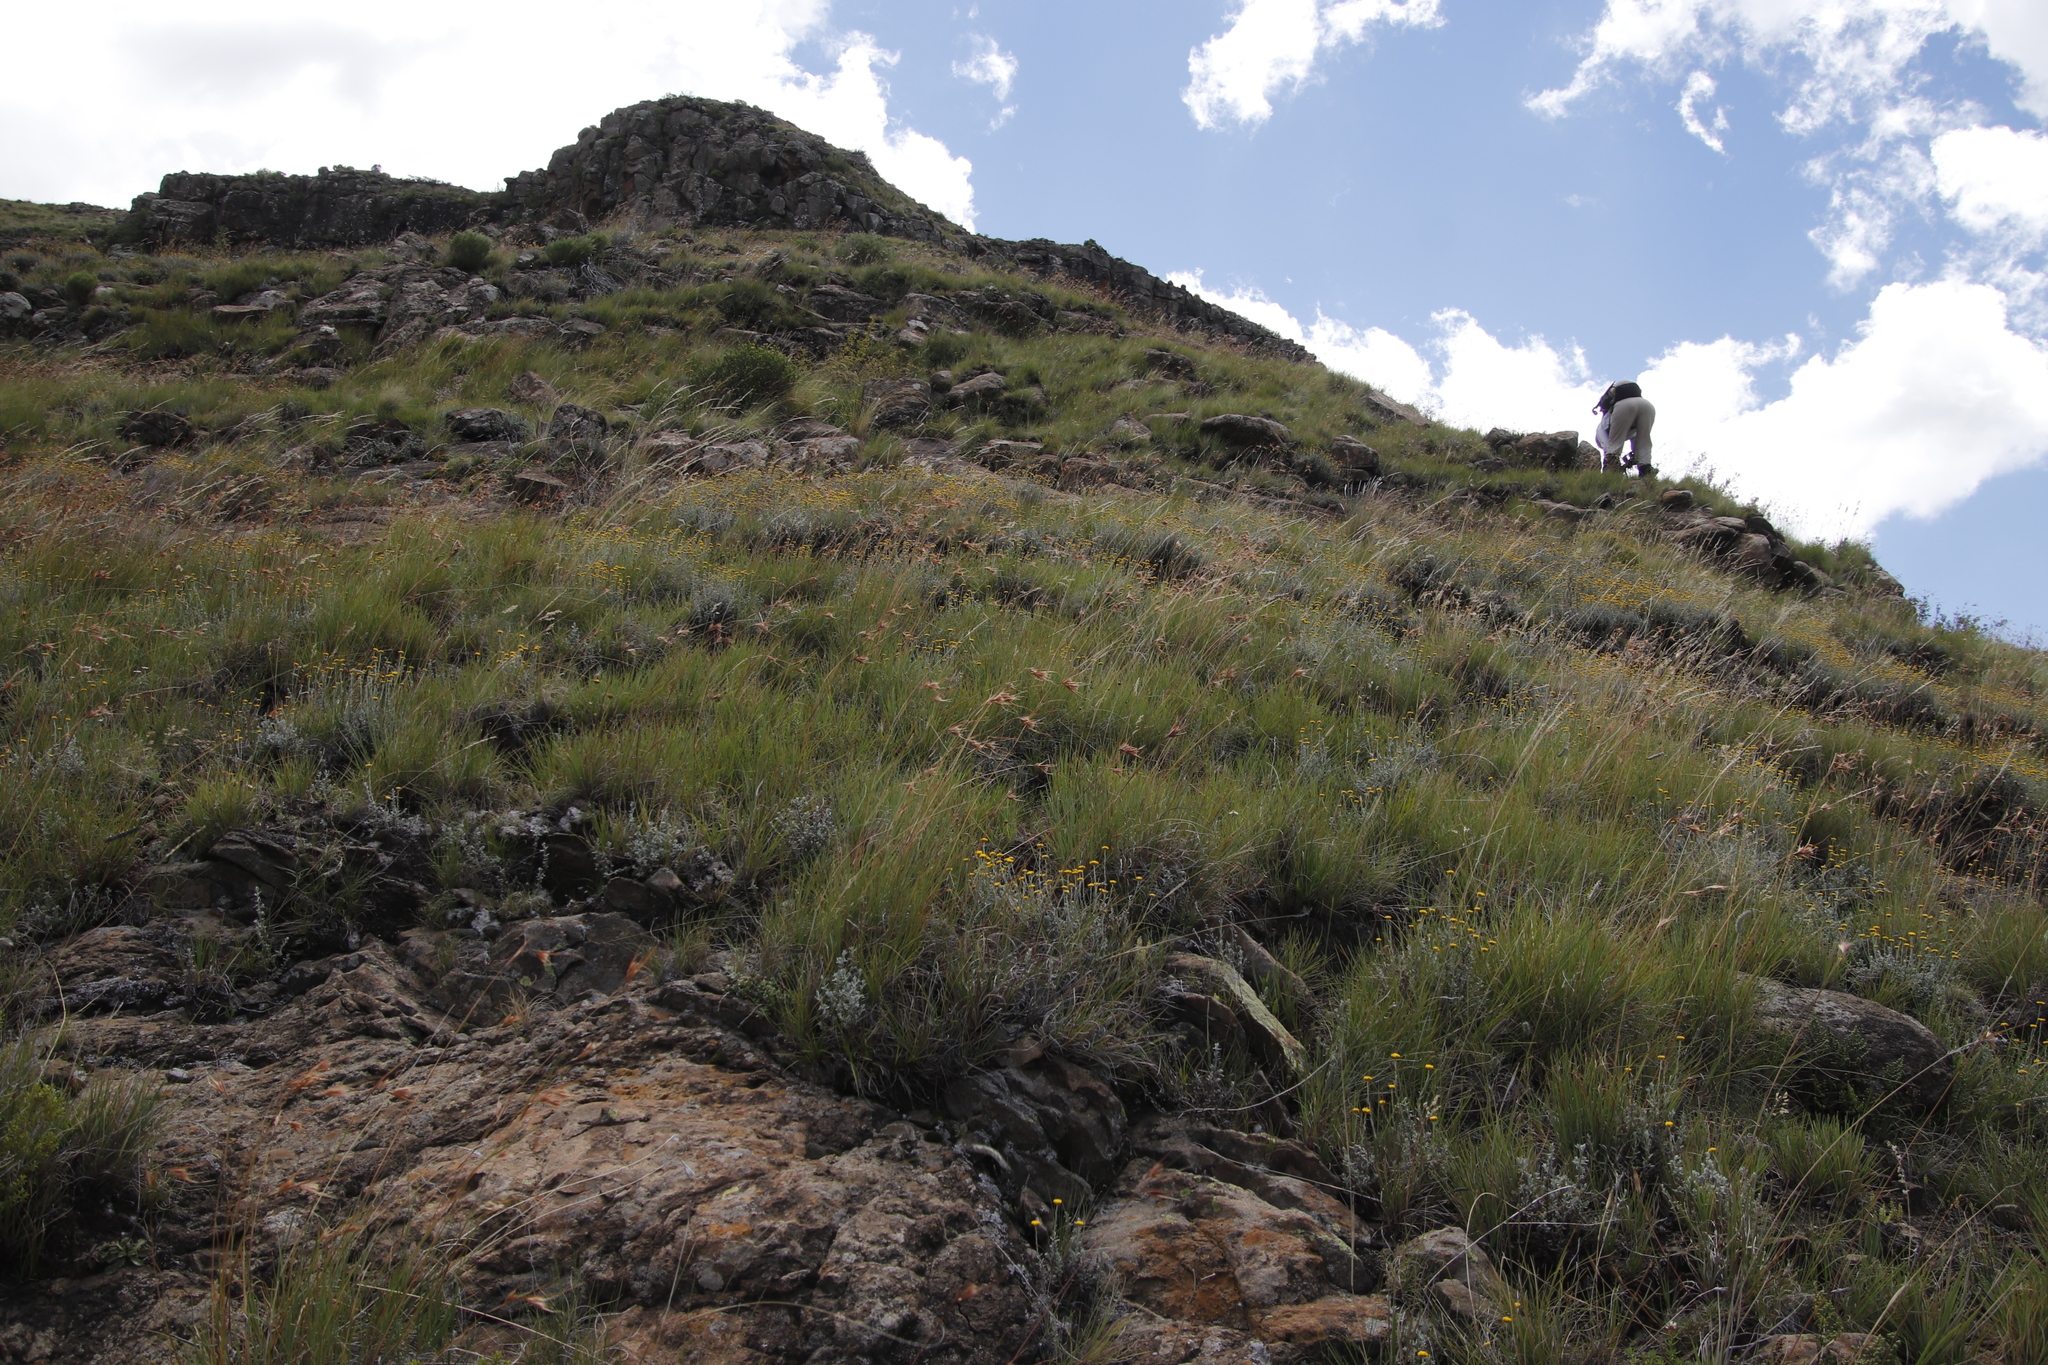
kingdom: Plantae
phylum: Tracheophyta
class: Liliopsida
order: Poales
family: Poaceae
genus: Themeda
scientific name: Themeda triandra
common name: Kangaroo grass
